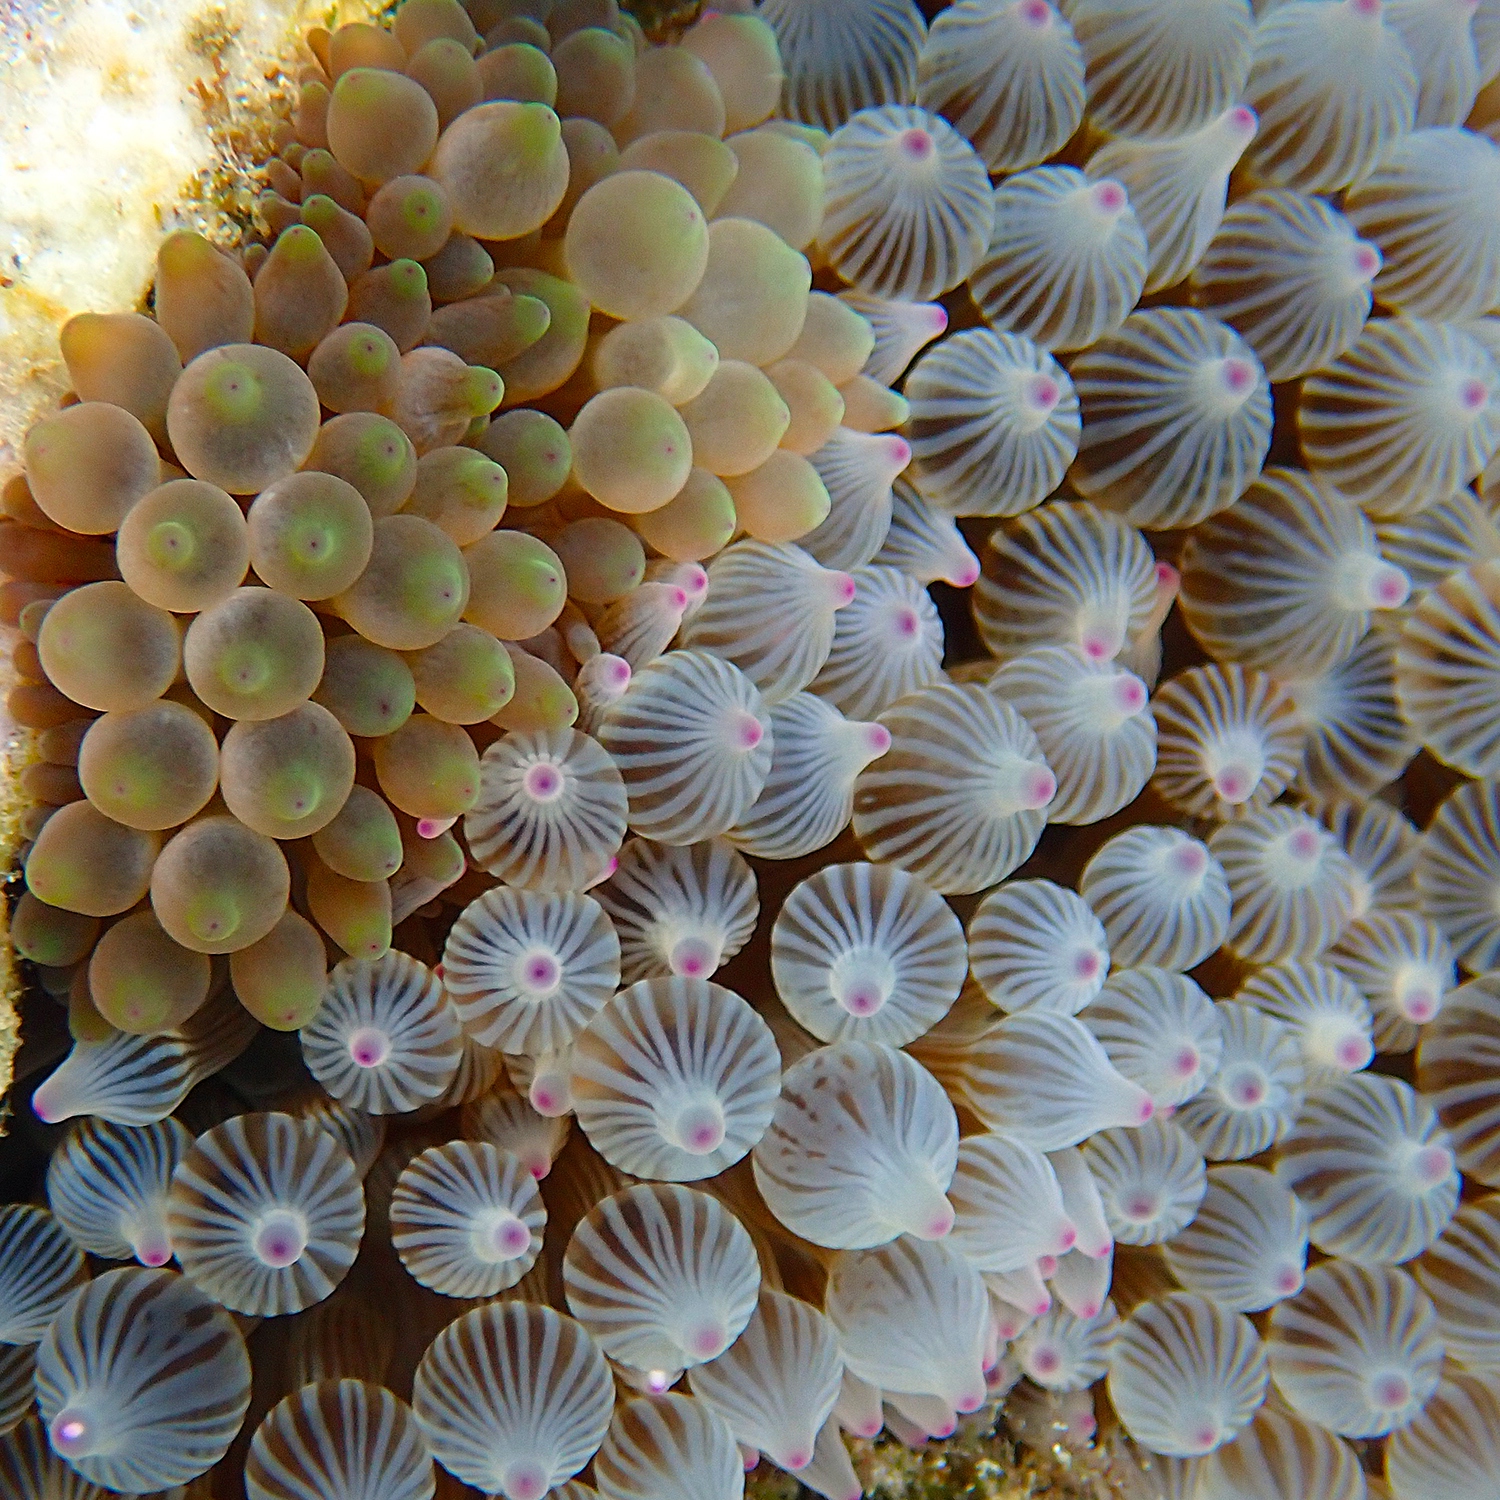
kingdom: Animalia
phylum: Cnidaria
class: Anthozoa
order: Actiniaria
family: Actiniidae
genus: Entacmaea
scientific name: Entacmaea quadricolor
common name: Bulb tentacle sea anemone
